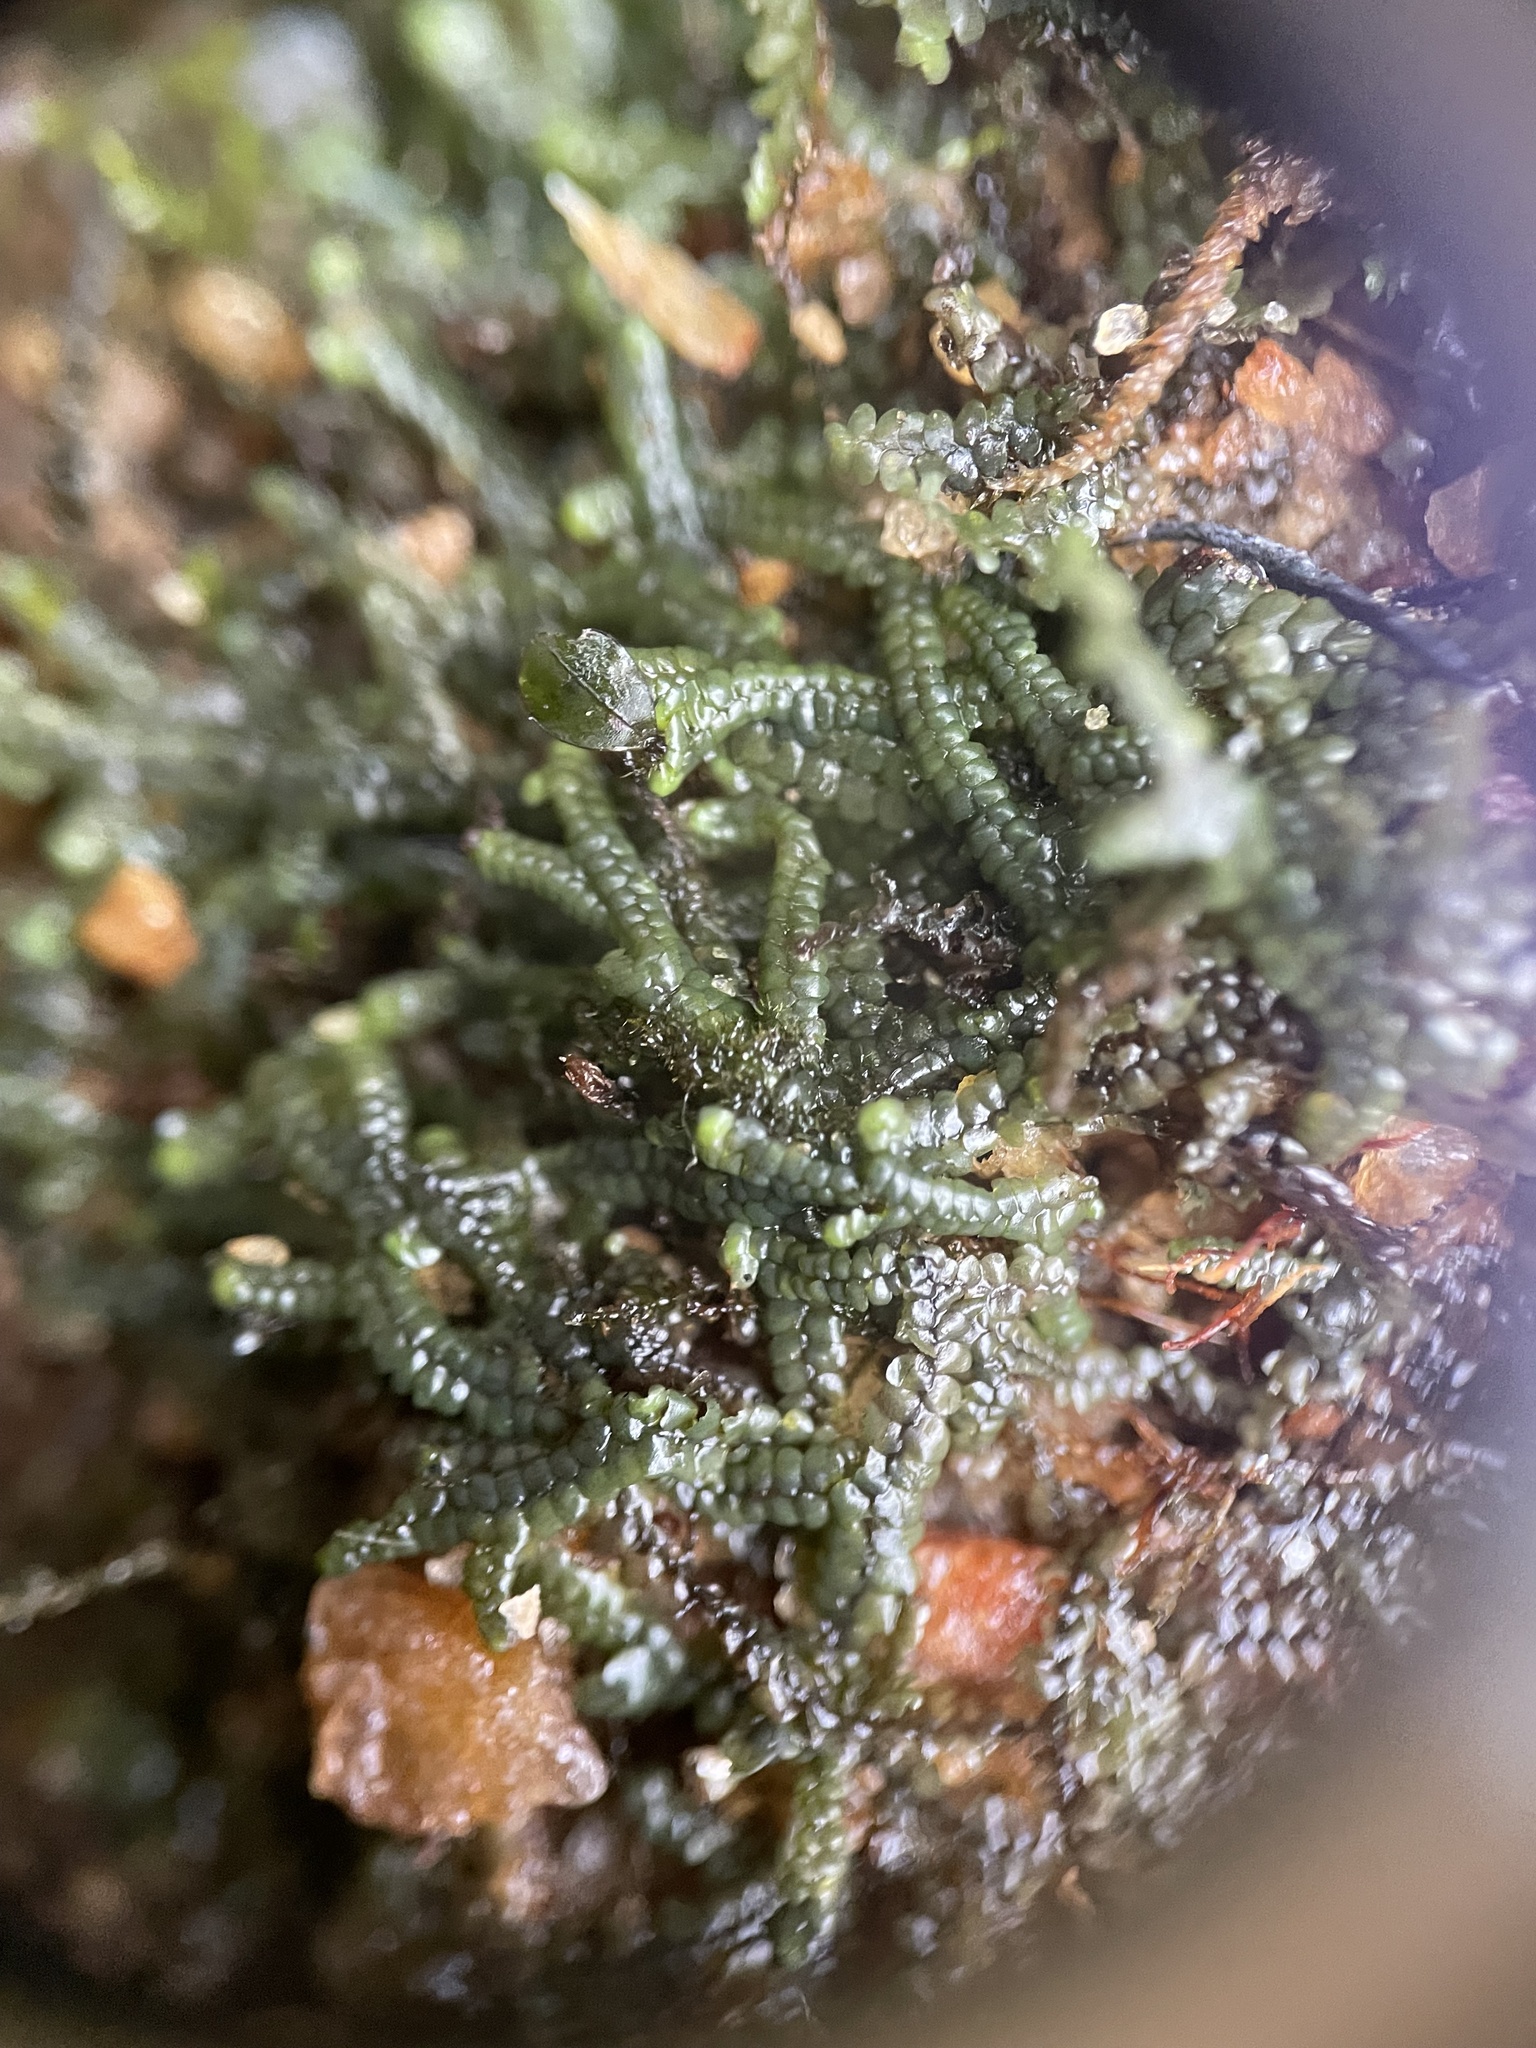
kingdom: Plantae
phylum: Marchantiophyta
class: Jungermanniopsida
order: Porellales
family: Jubulaceae
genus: Jubula
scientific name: Jubula hutchinsiae
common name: Hutchins' hollywort
